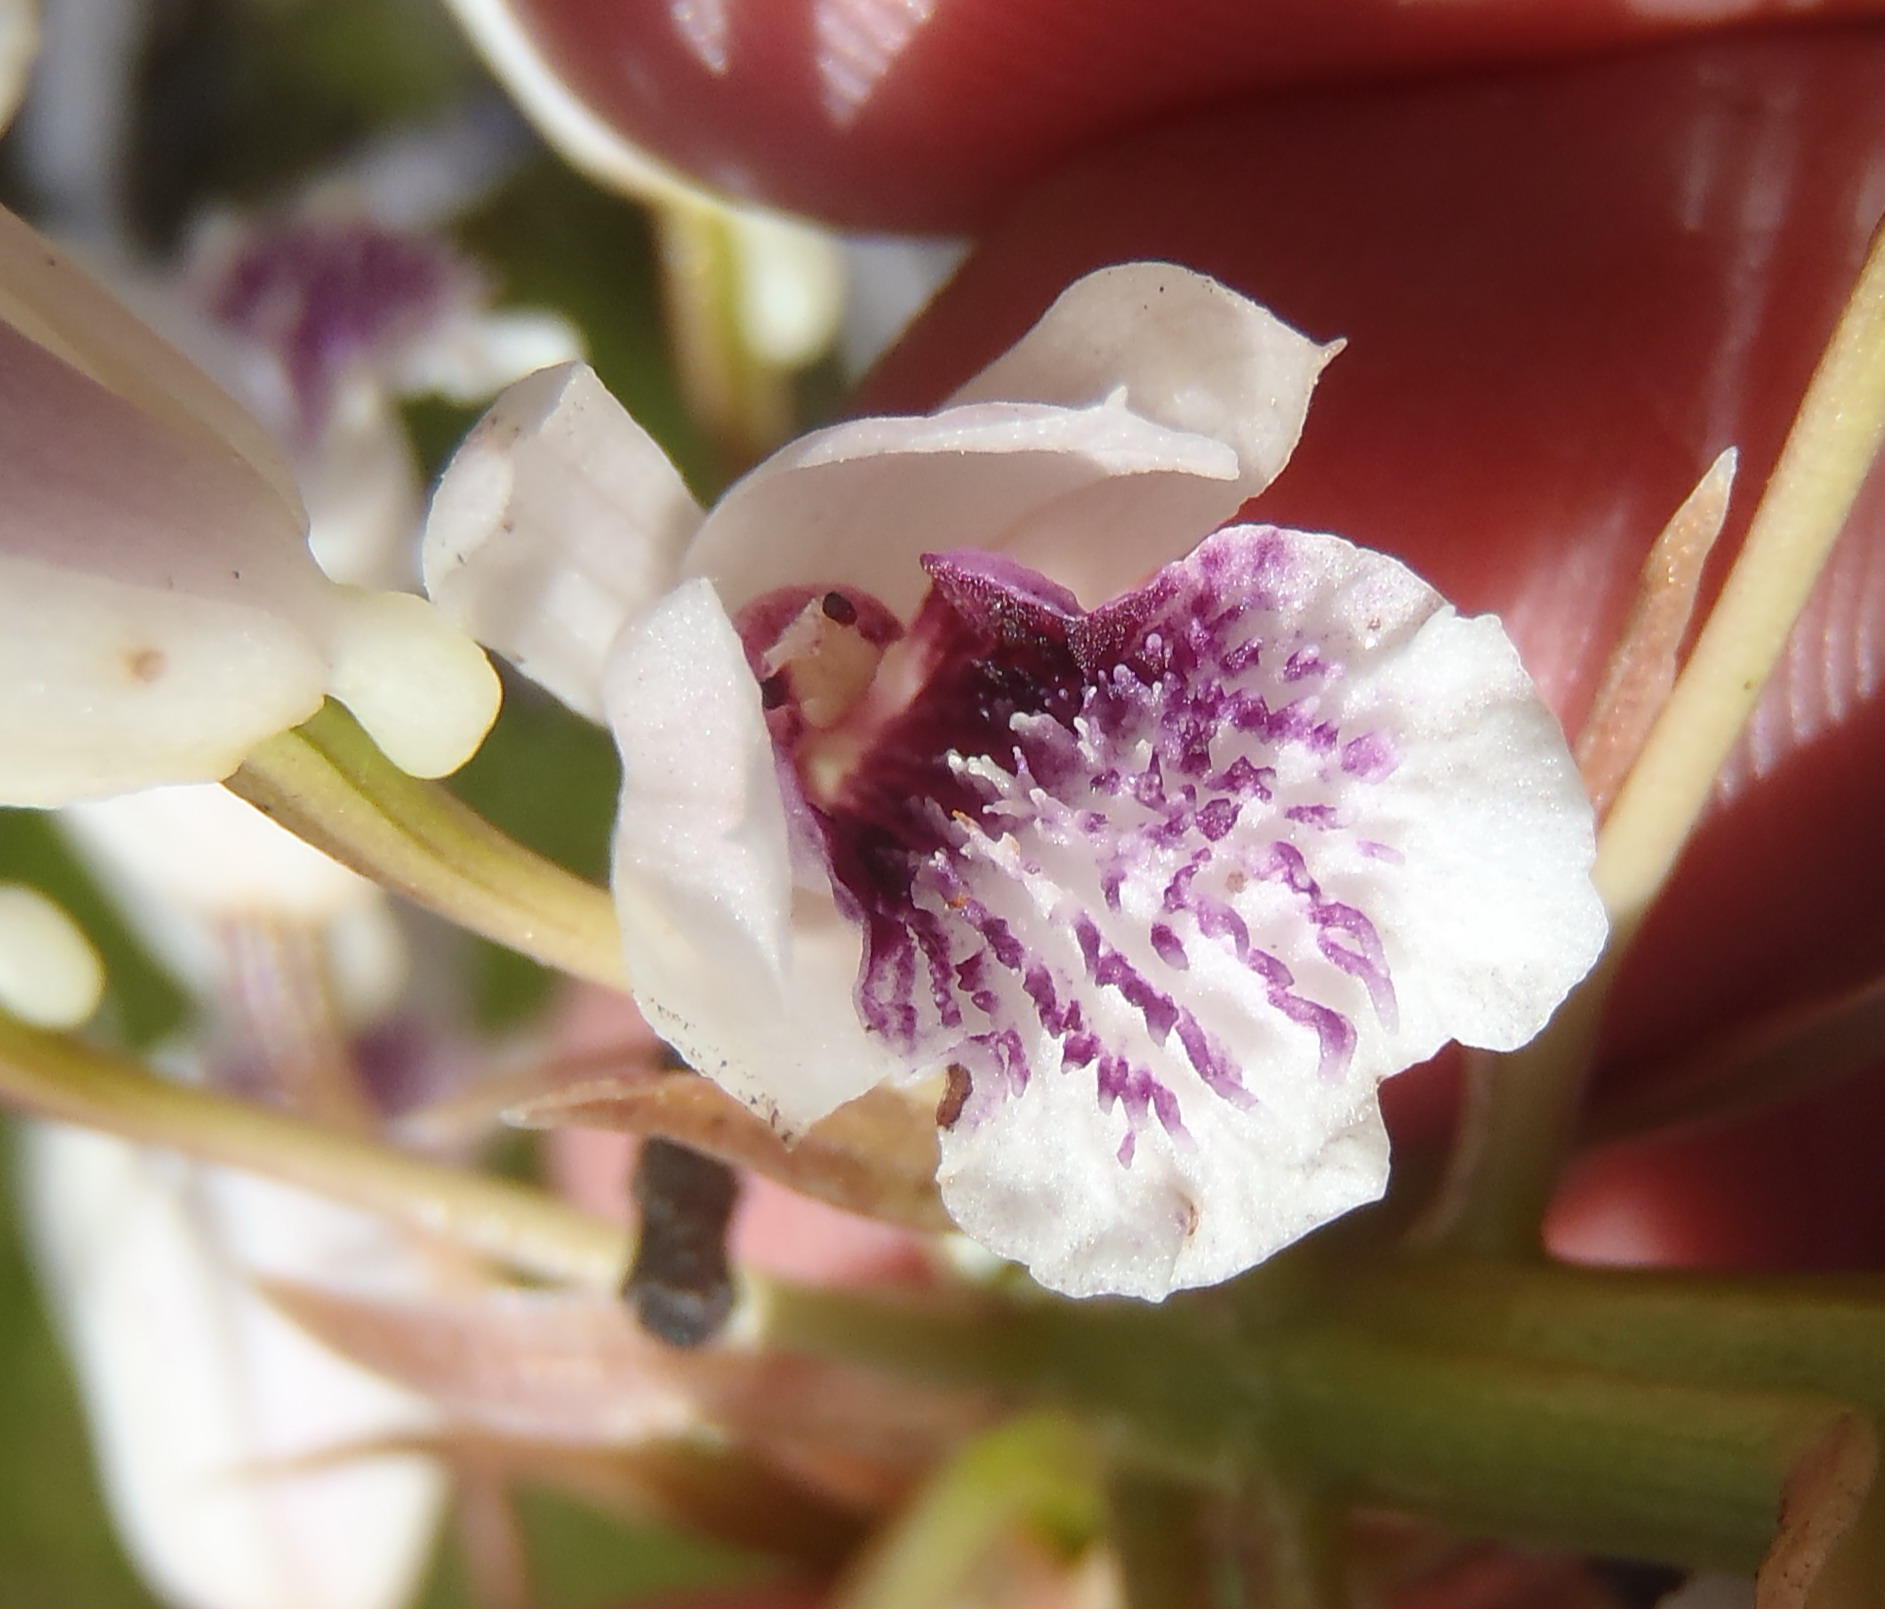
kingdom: Plantae
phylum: Tracheophyta
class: Liliopsida
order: Asparagales
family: Orchidaceae
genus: Eulophia
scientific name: Eulophia barbata
